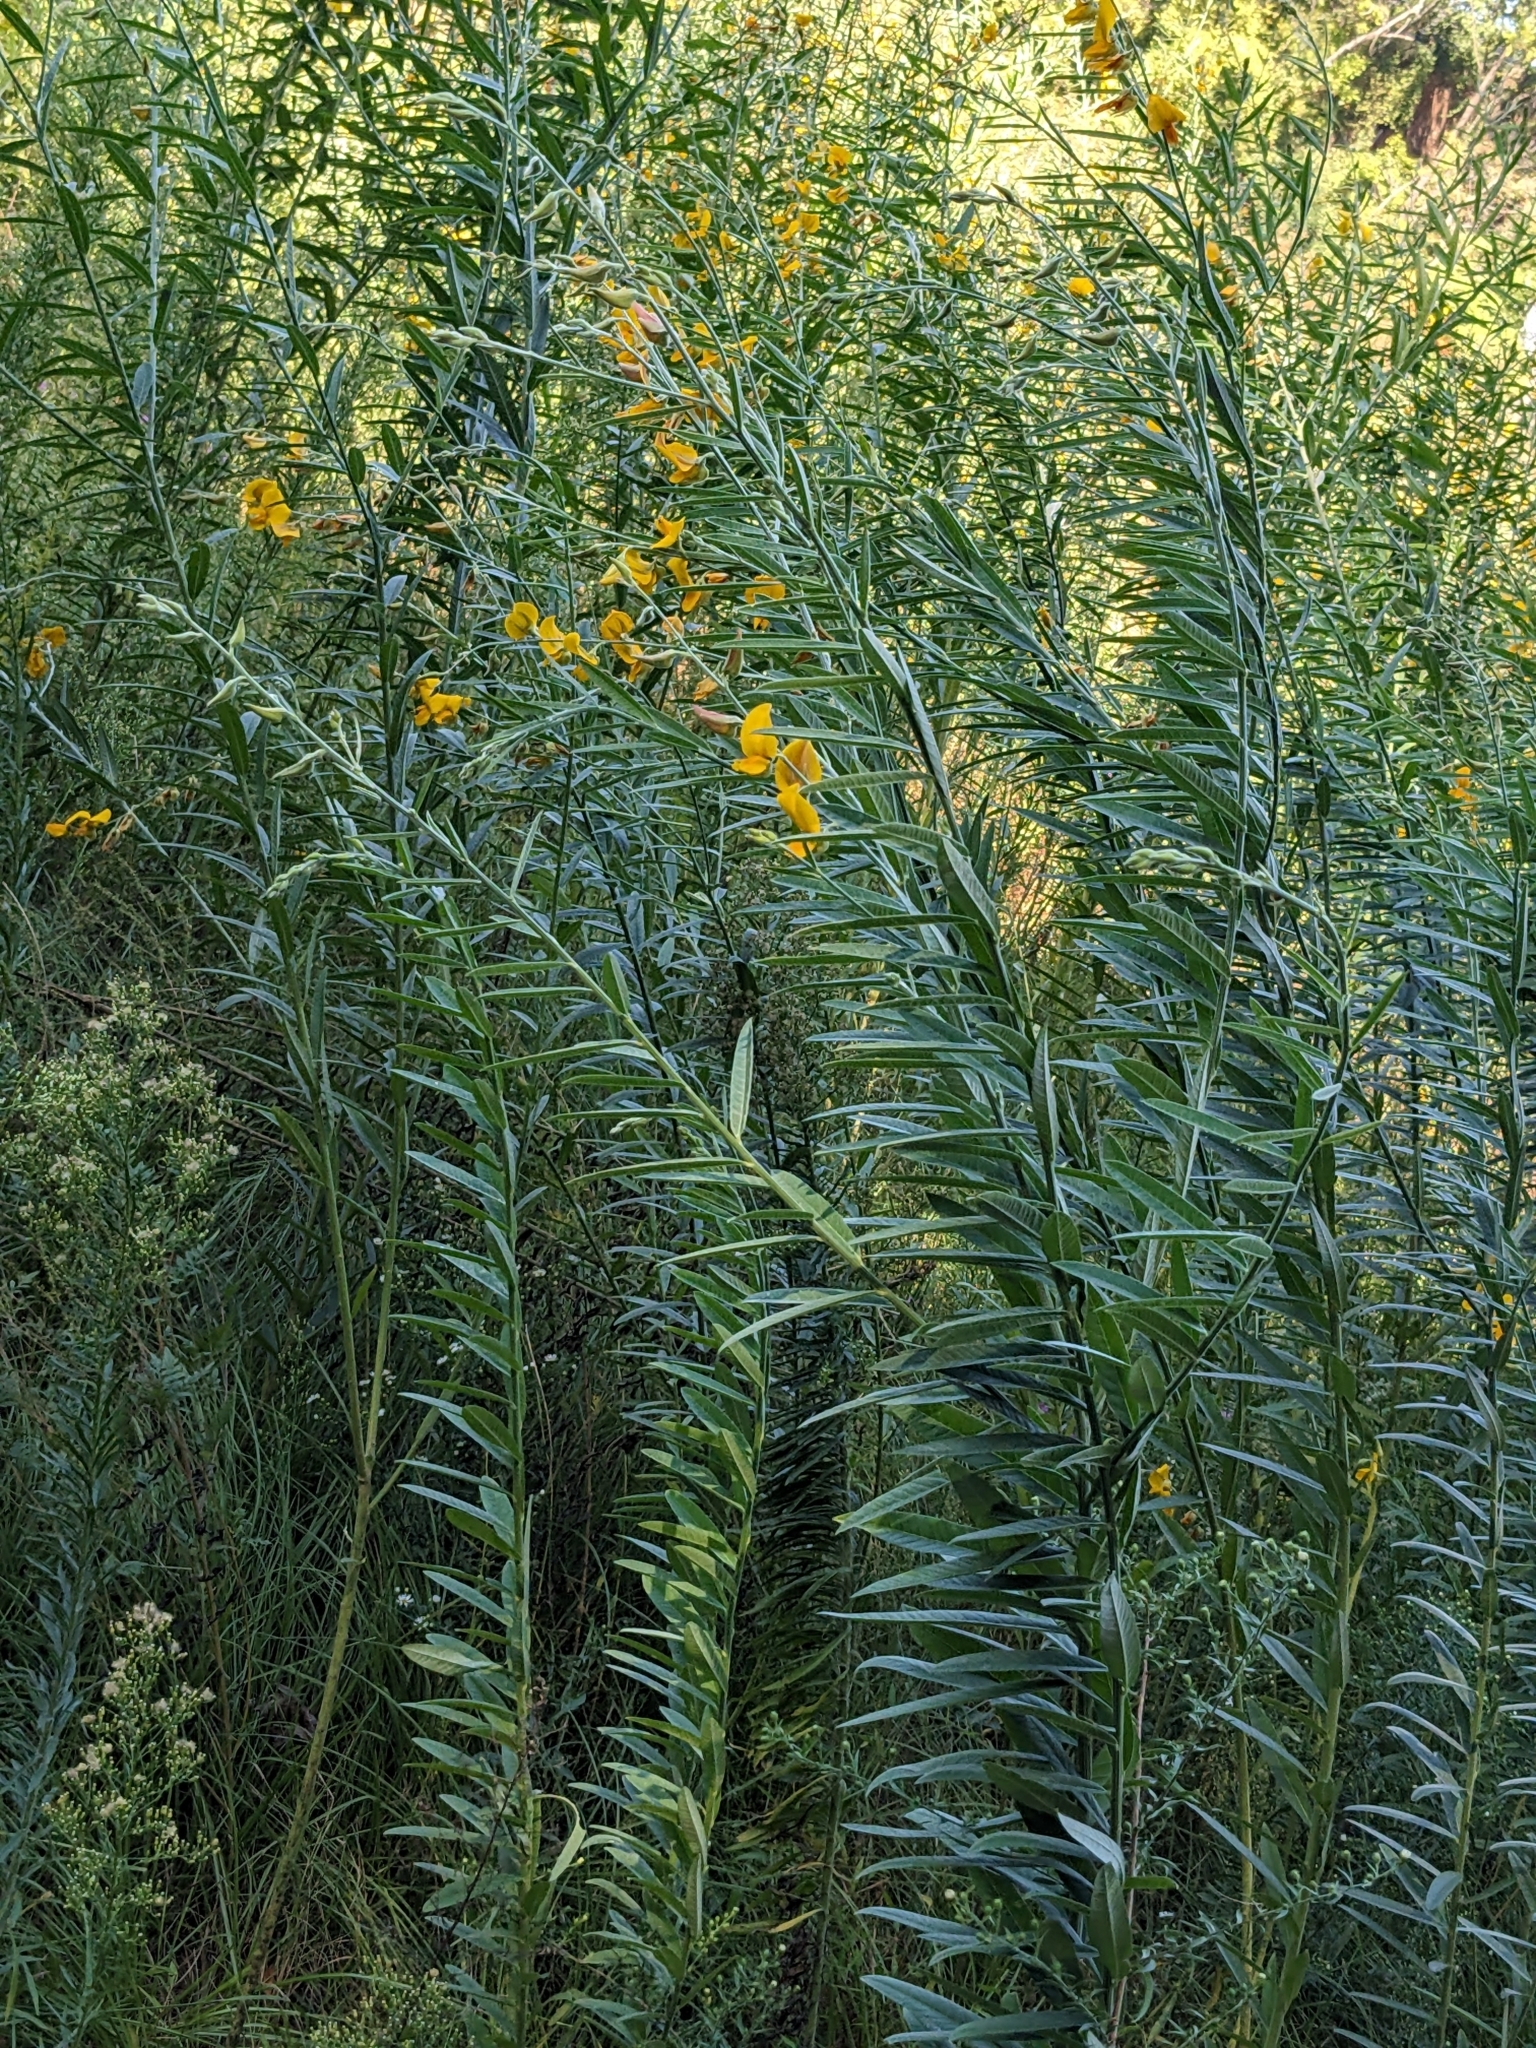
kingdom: Plantae
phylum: Tracheophyta
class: Magnoliopsida
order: Fabales
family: Fabaceae
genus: Crotalaria
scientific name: Crotalaria juncea
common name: Sunn hemp
